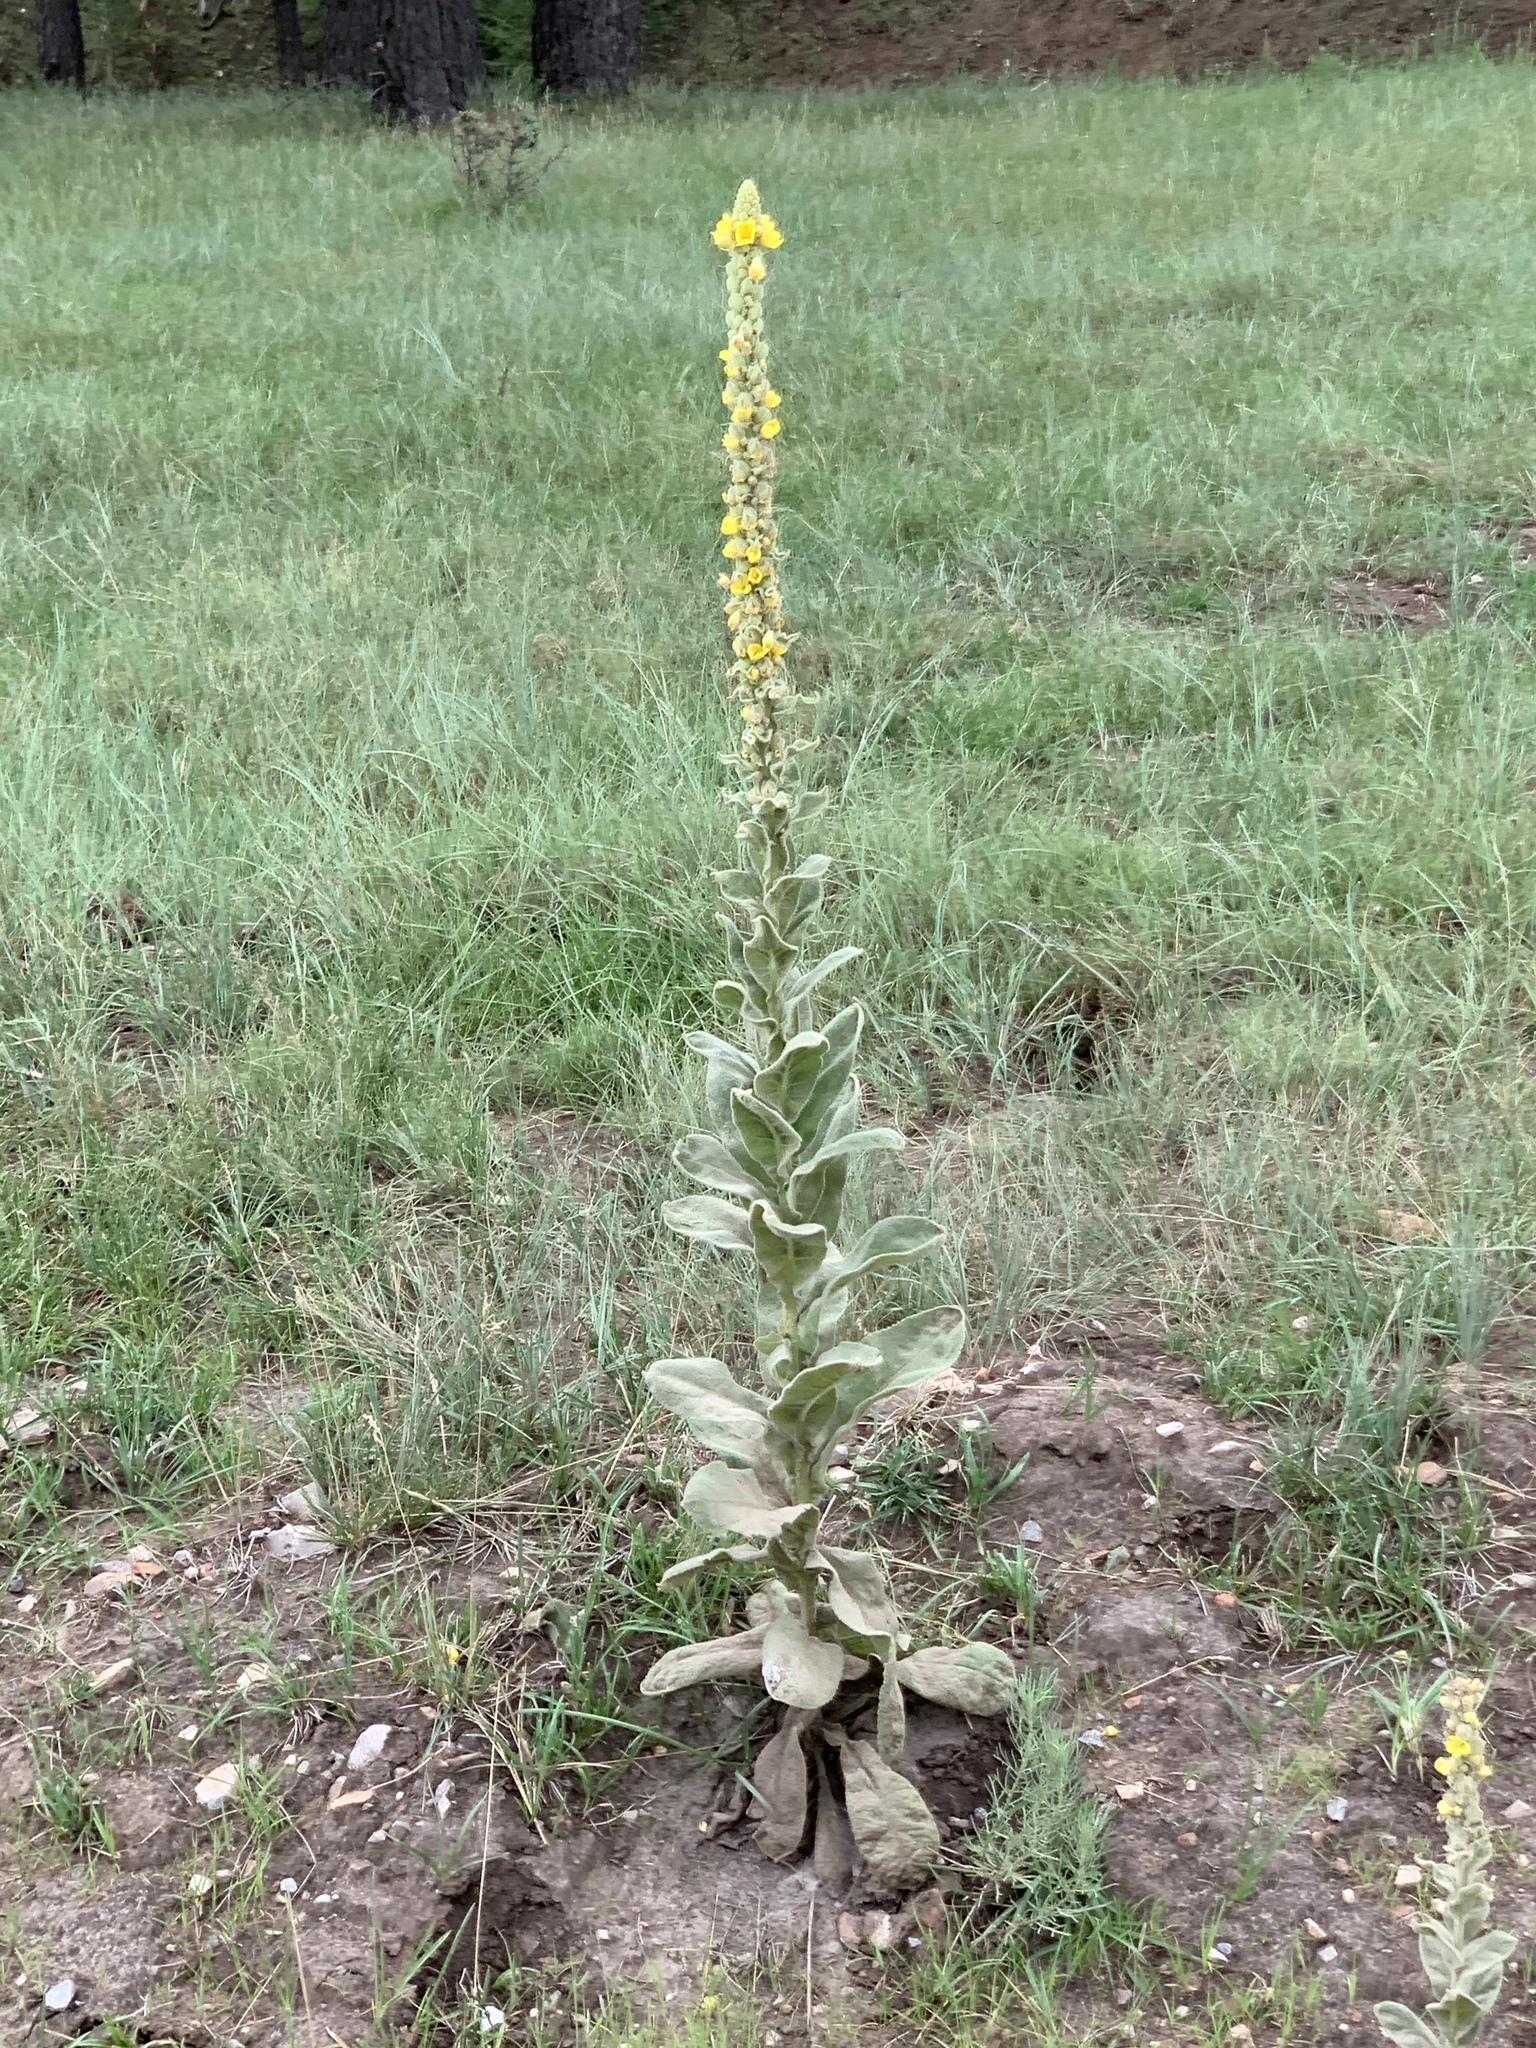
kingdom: Plantae
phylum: Tracheophyta
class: Magnoliopsida
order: Lamiales
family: Scrophulariaceae
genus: Verbascum
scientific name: Verbascum thapsus
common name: Common mullein
